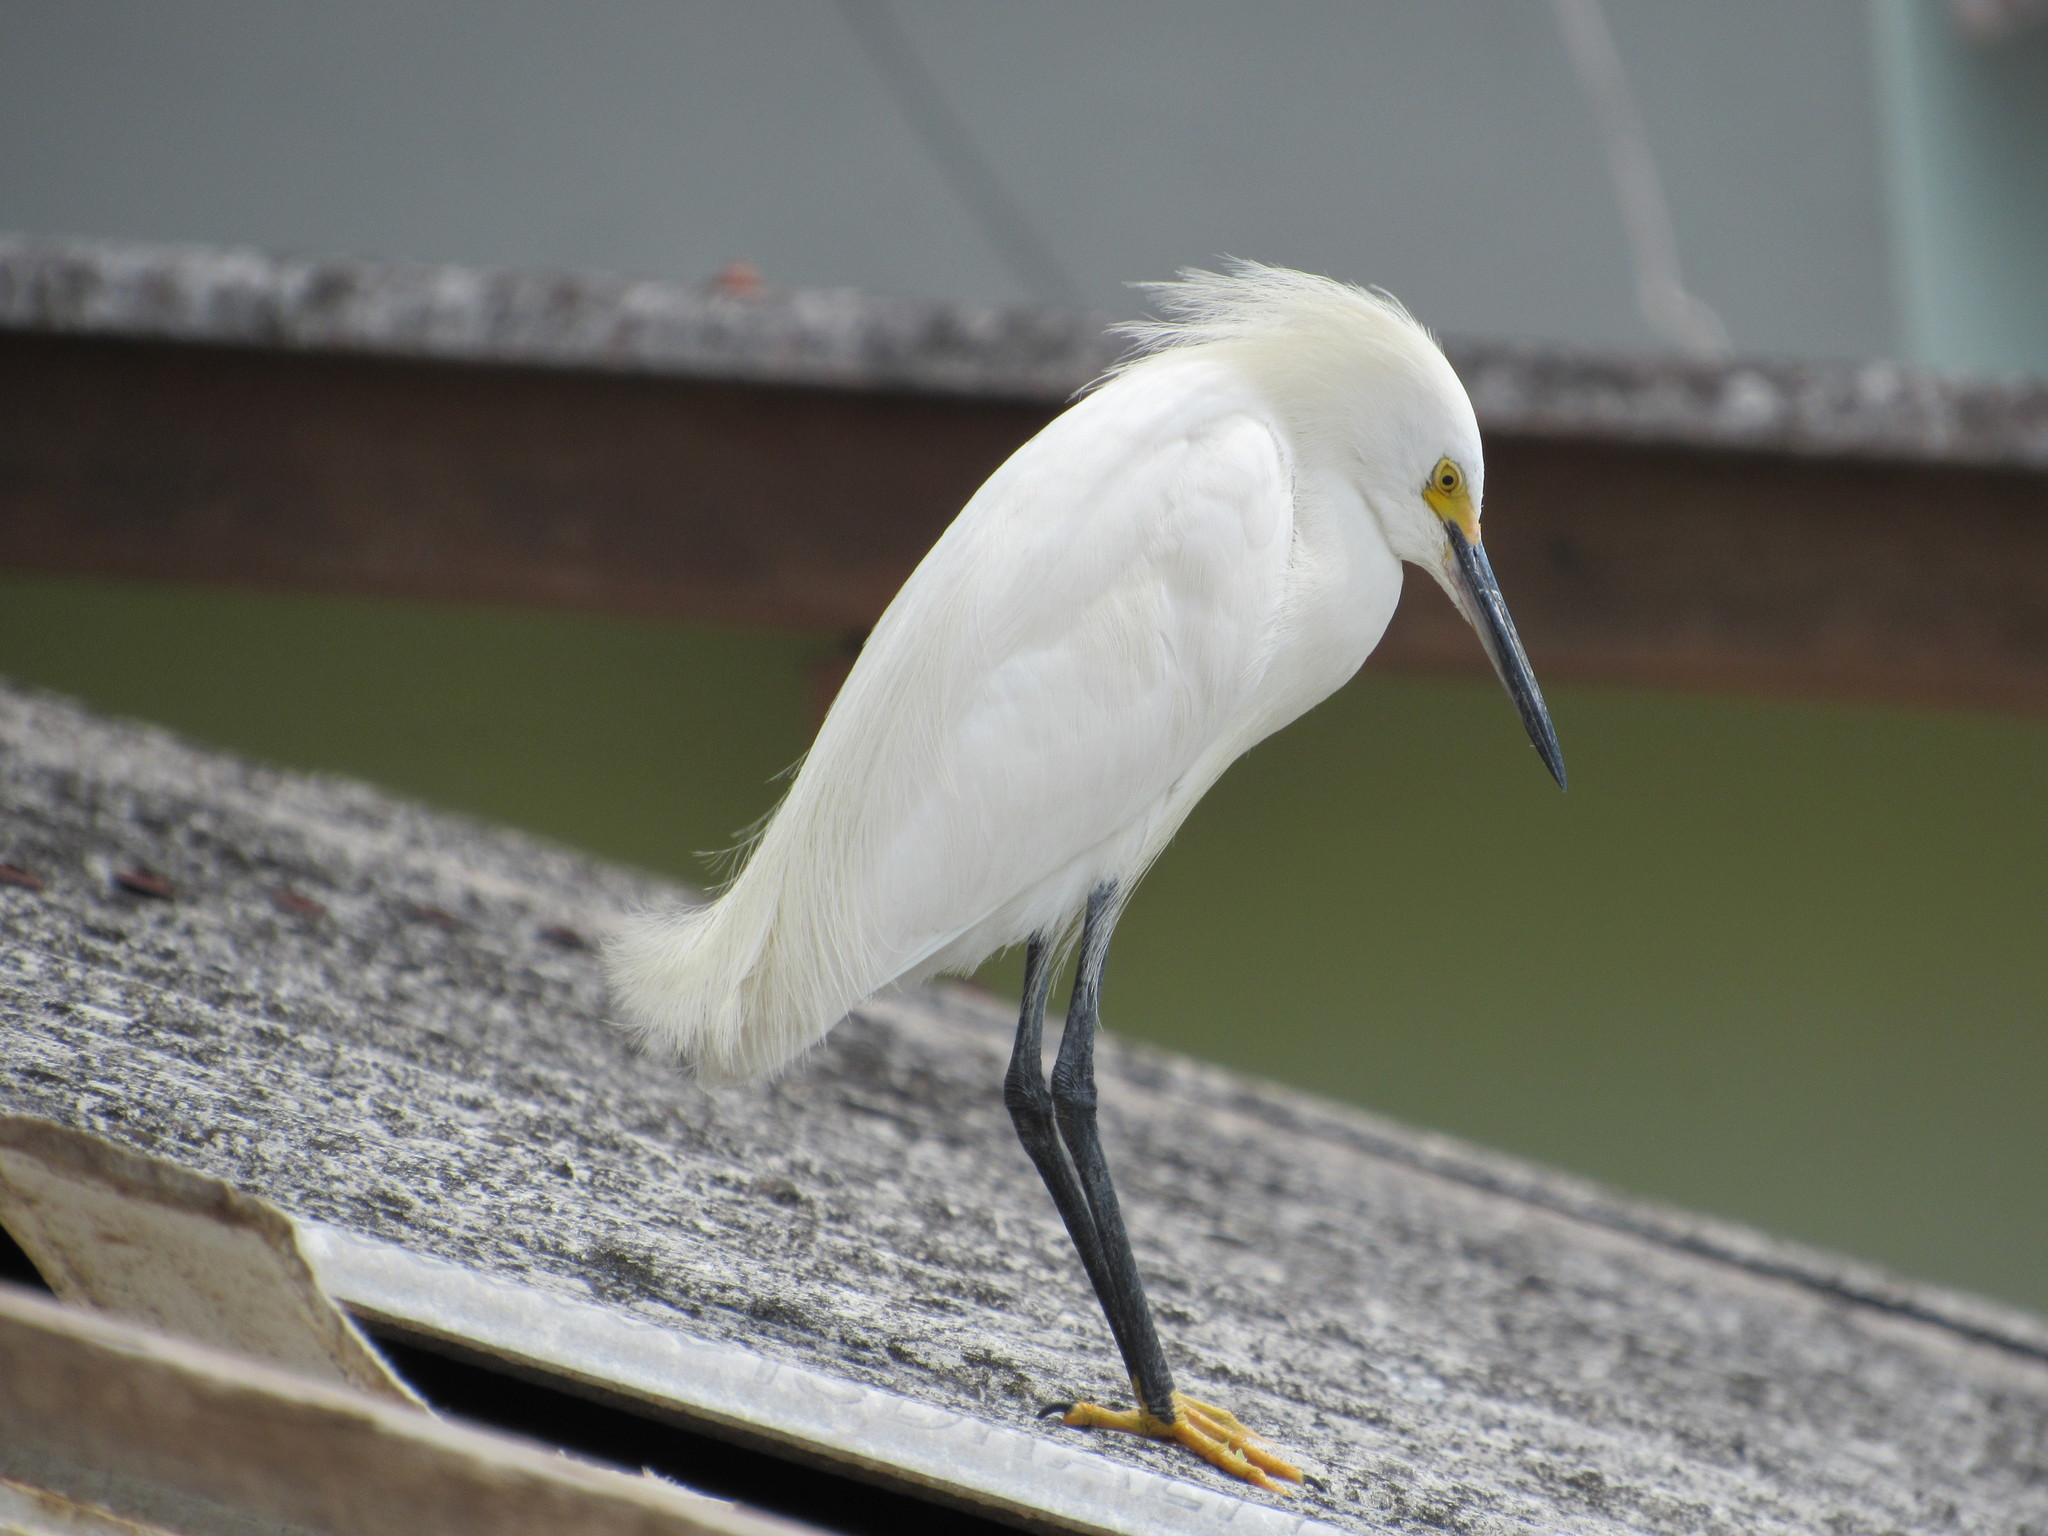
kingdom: Animalia
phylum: Chordata
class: Aves
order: Pelecaniformes
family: Ardeidae
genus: Egretta
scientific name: Egretta thula
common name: Snowy egret
